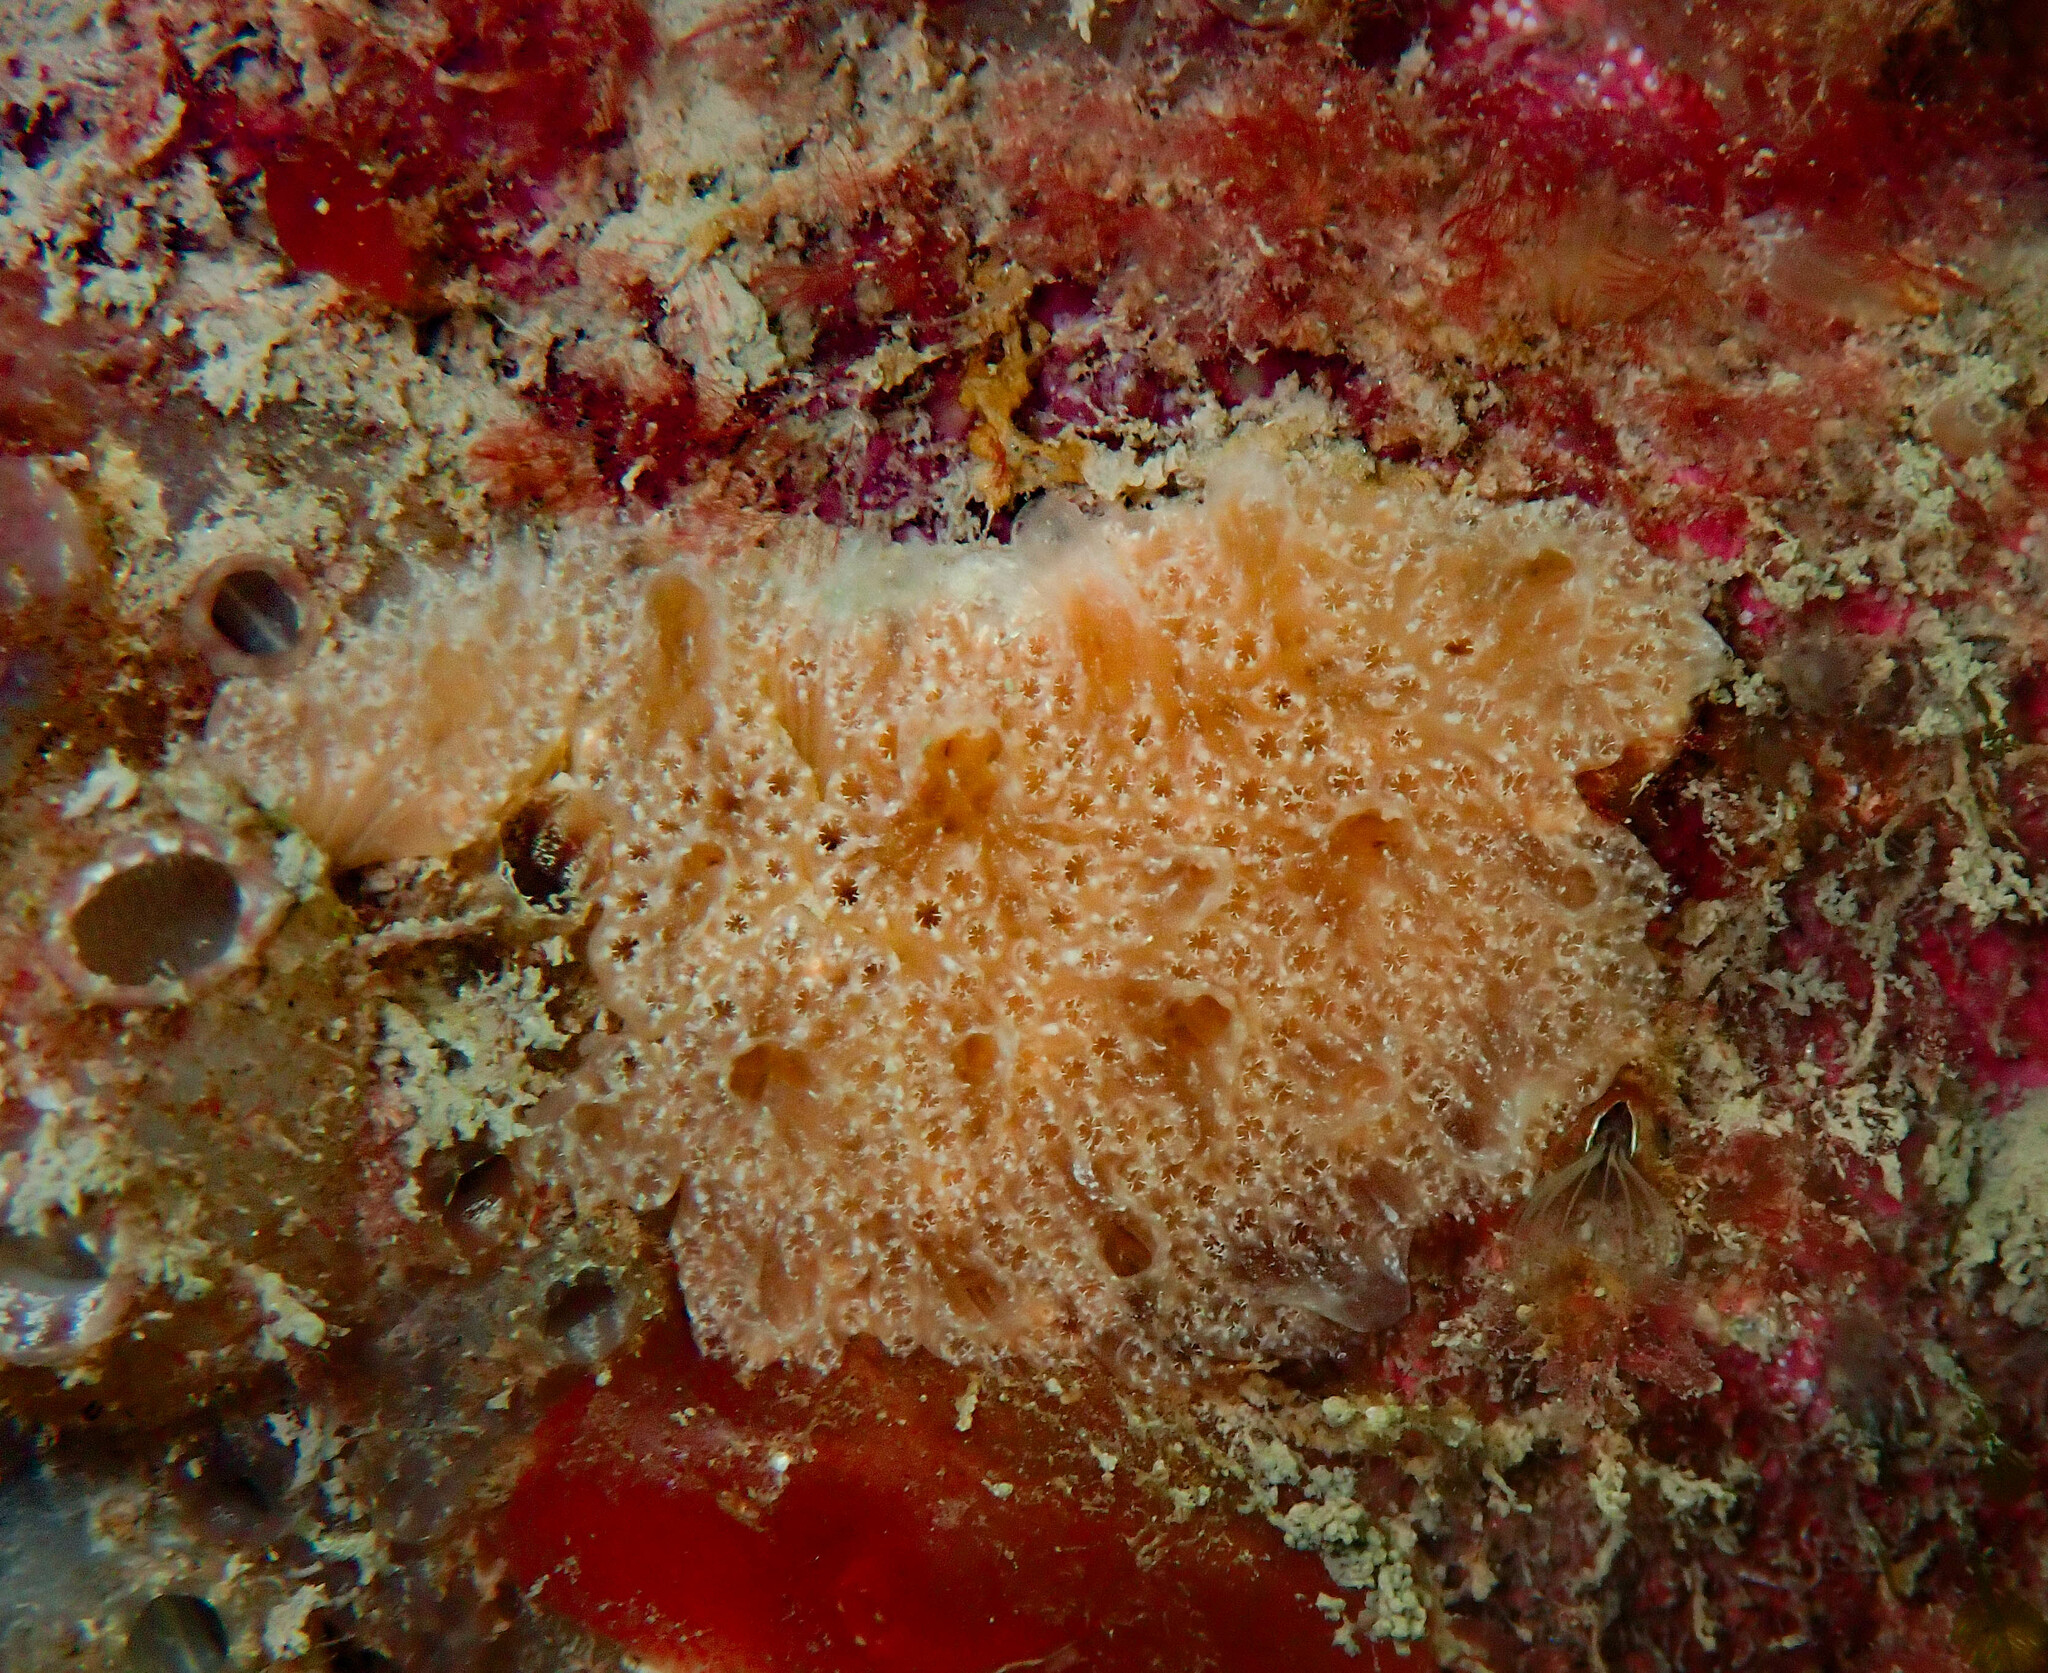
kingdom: Animalia
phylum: Chordata
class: Ascidiacea
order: Aplousobranchia
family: Polyclinidae
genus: Aplidium
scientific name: Aplidium nordmanni
